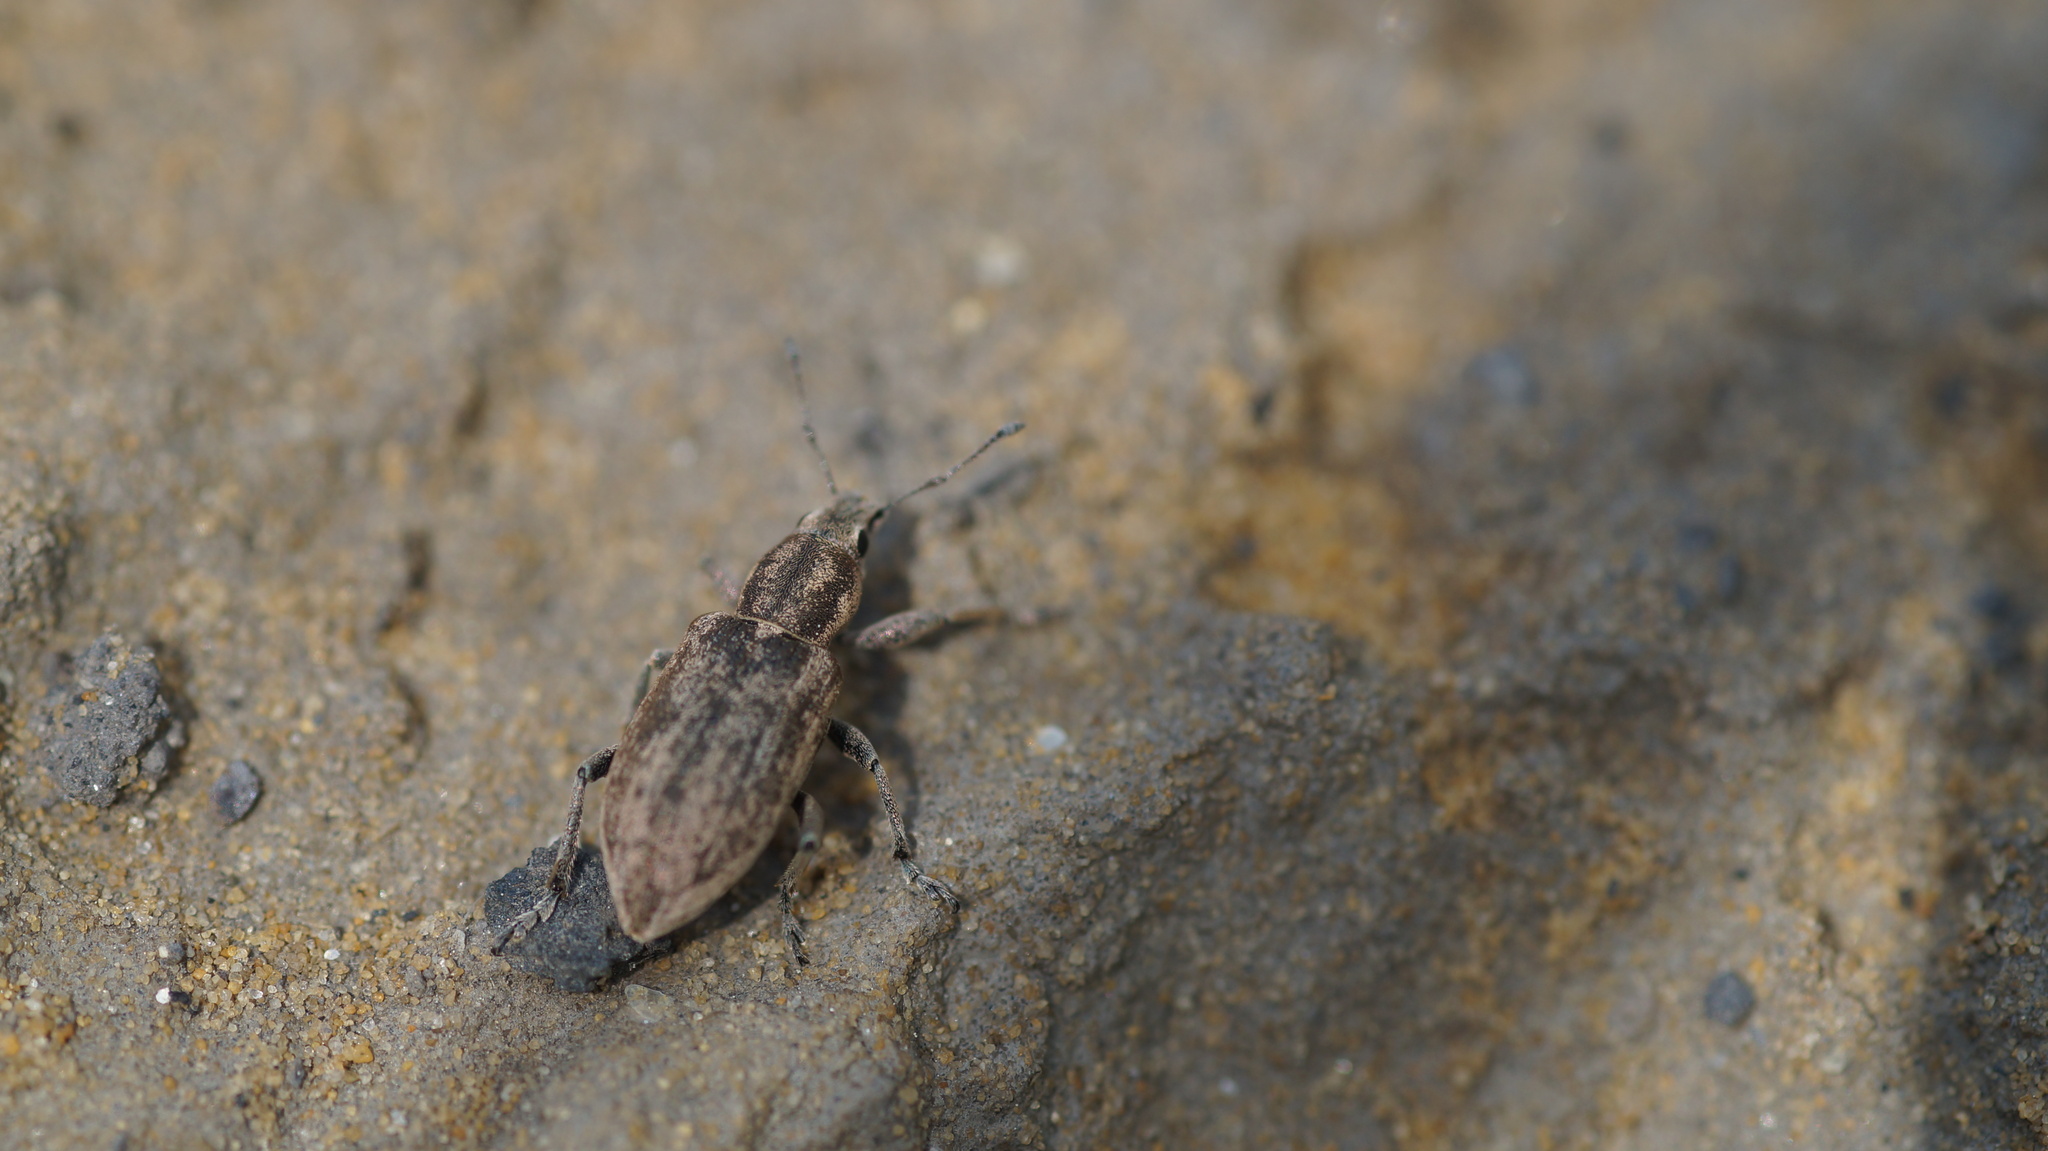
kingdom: Animalia
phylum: Arthropoda
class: Insecta
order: Coleoptera
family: Curculionidae
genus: Tanymecus
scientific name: Tanymecus palliatus
